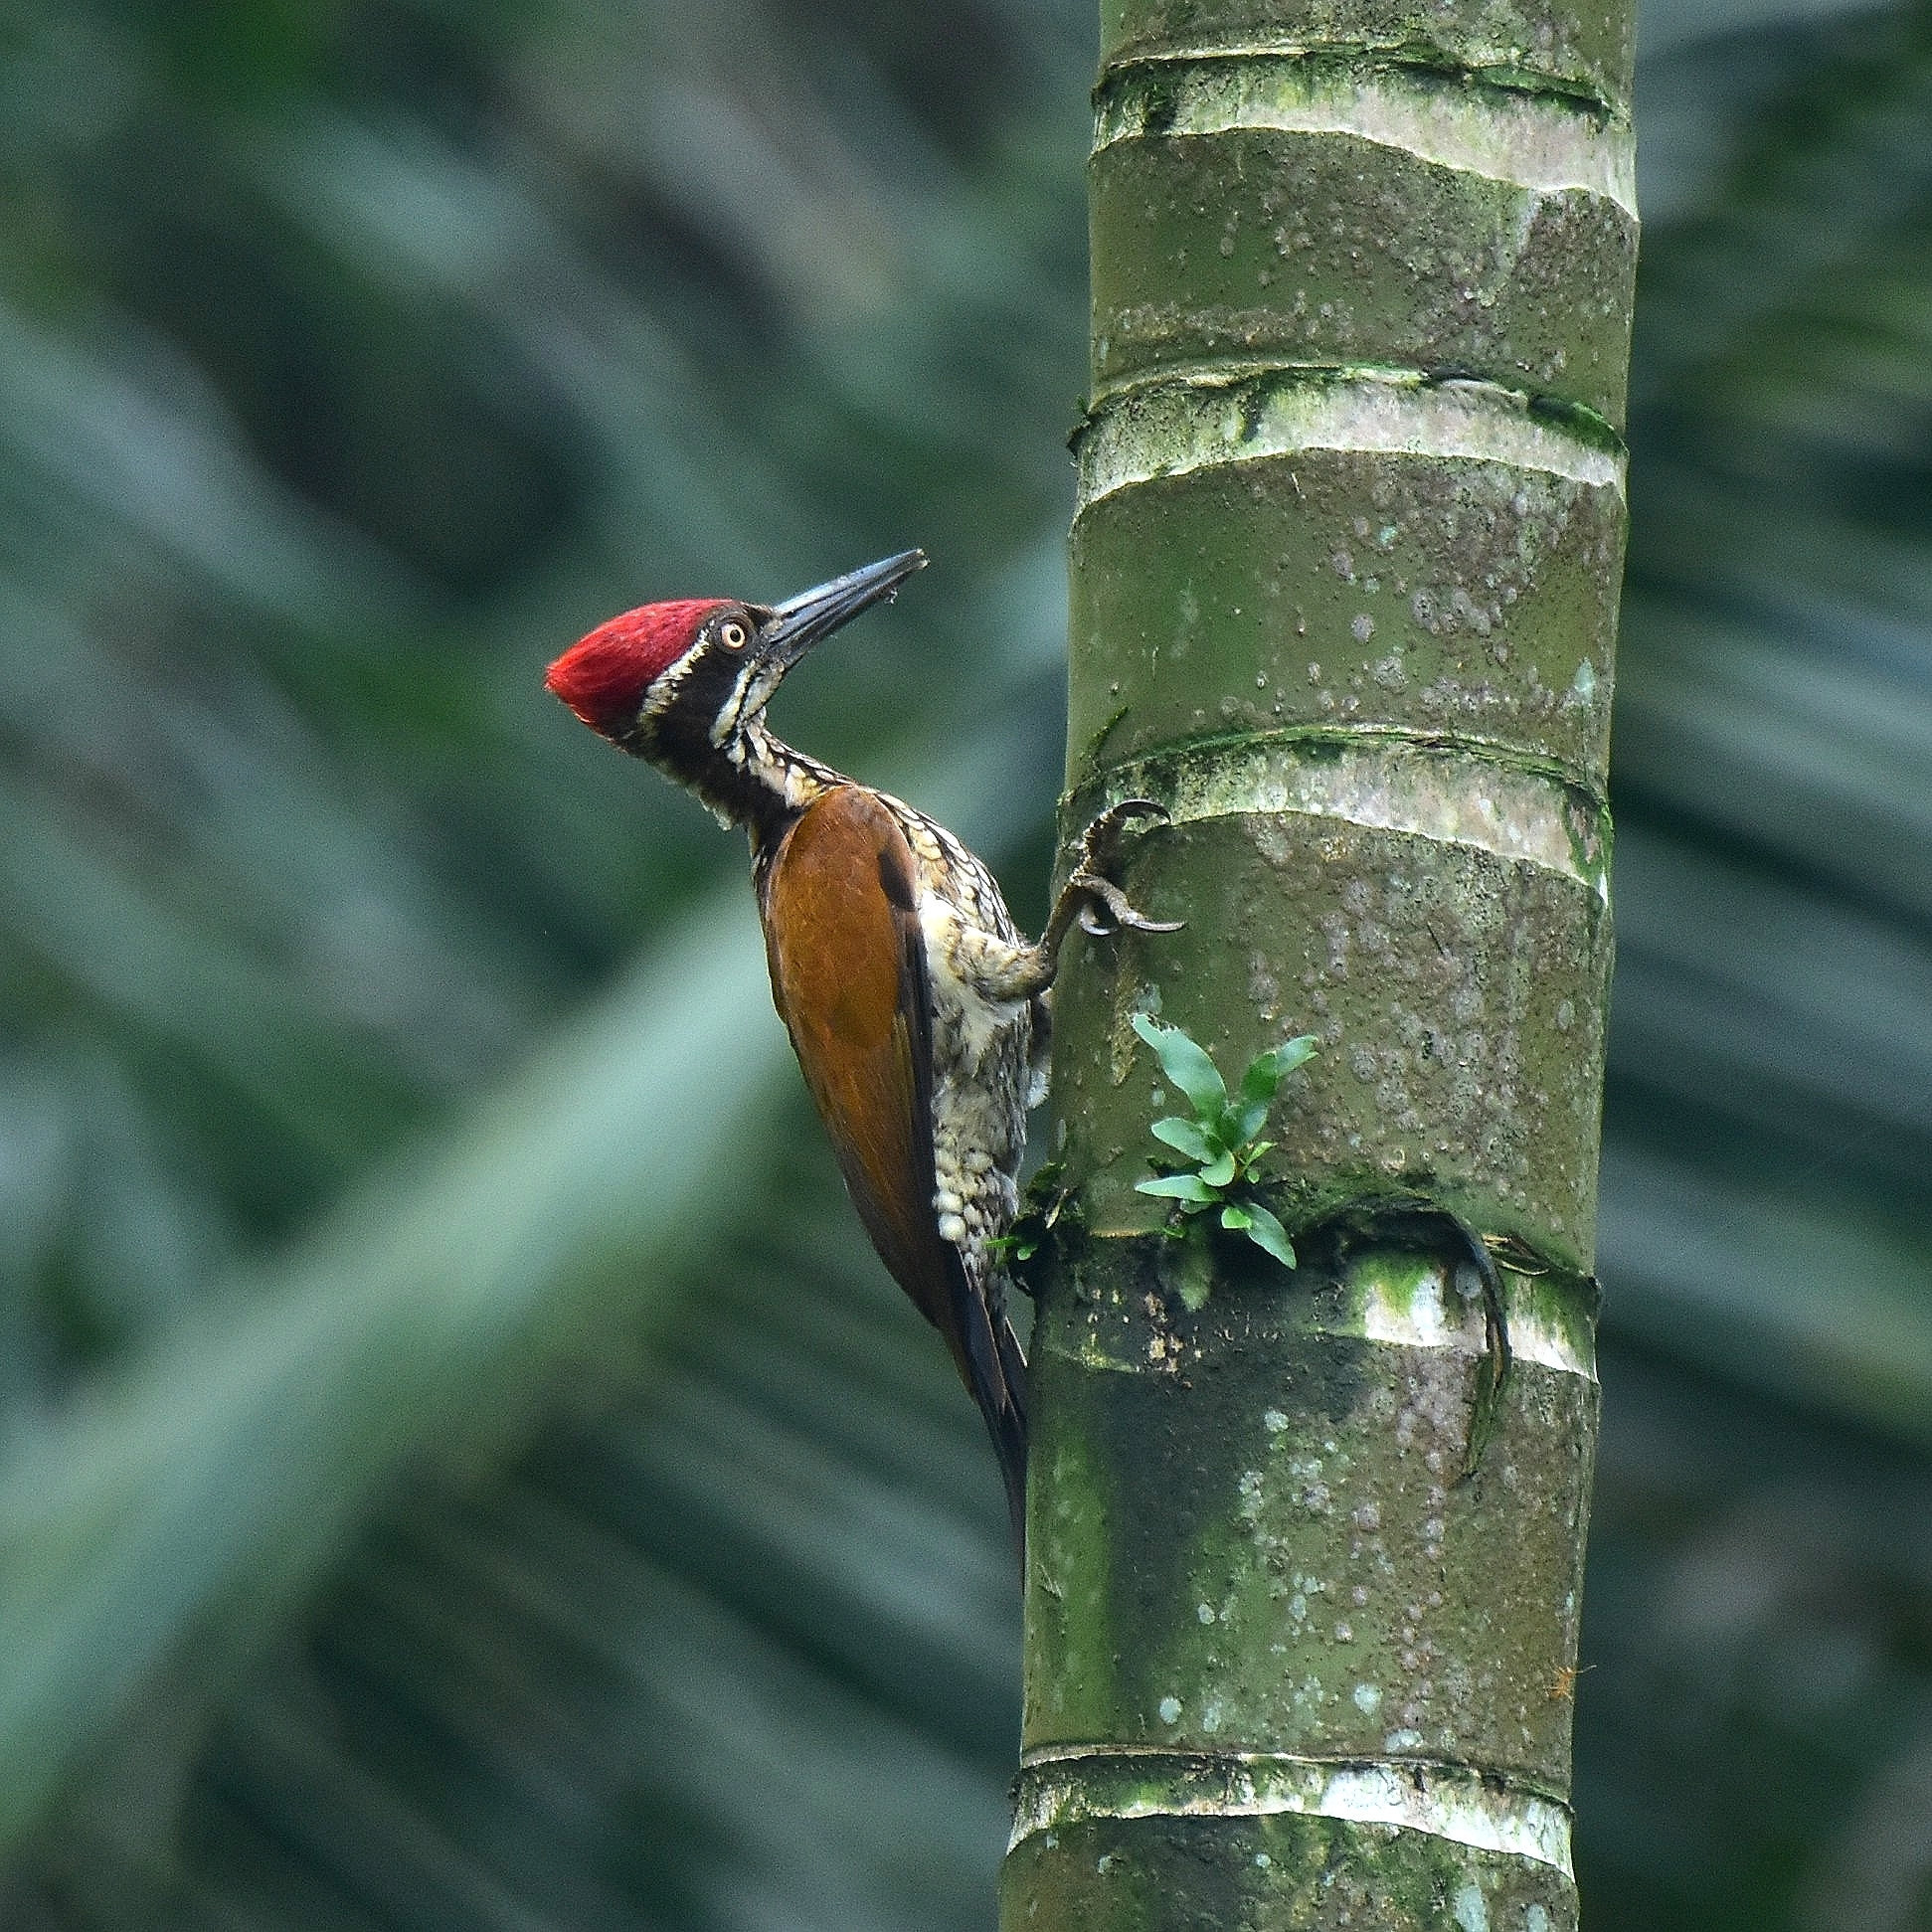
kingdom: Animalia
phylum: Chordata
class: Aves
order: Piciformes
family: Picidae
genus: Chrysocolaptes
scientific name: Chrysocolaptes socialis
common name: Malabar flameback
